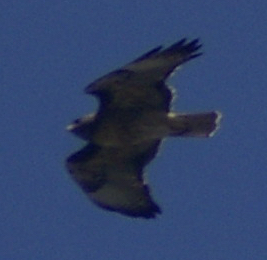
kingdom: Animalia
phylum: Chordata
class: Aves
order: Accipitriformes
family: Accipitridae
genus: Buteo
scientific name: Buteo jamaicensis
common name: Red-tailed hawk
